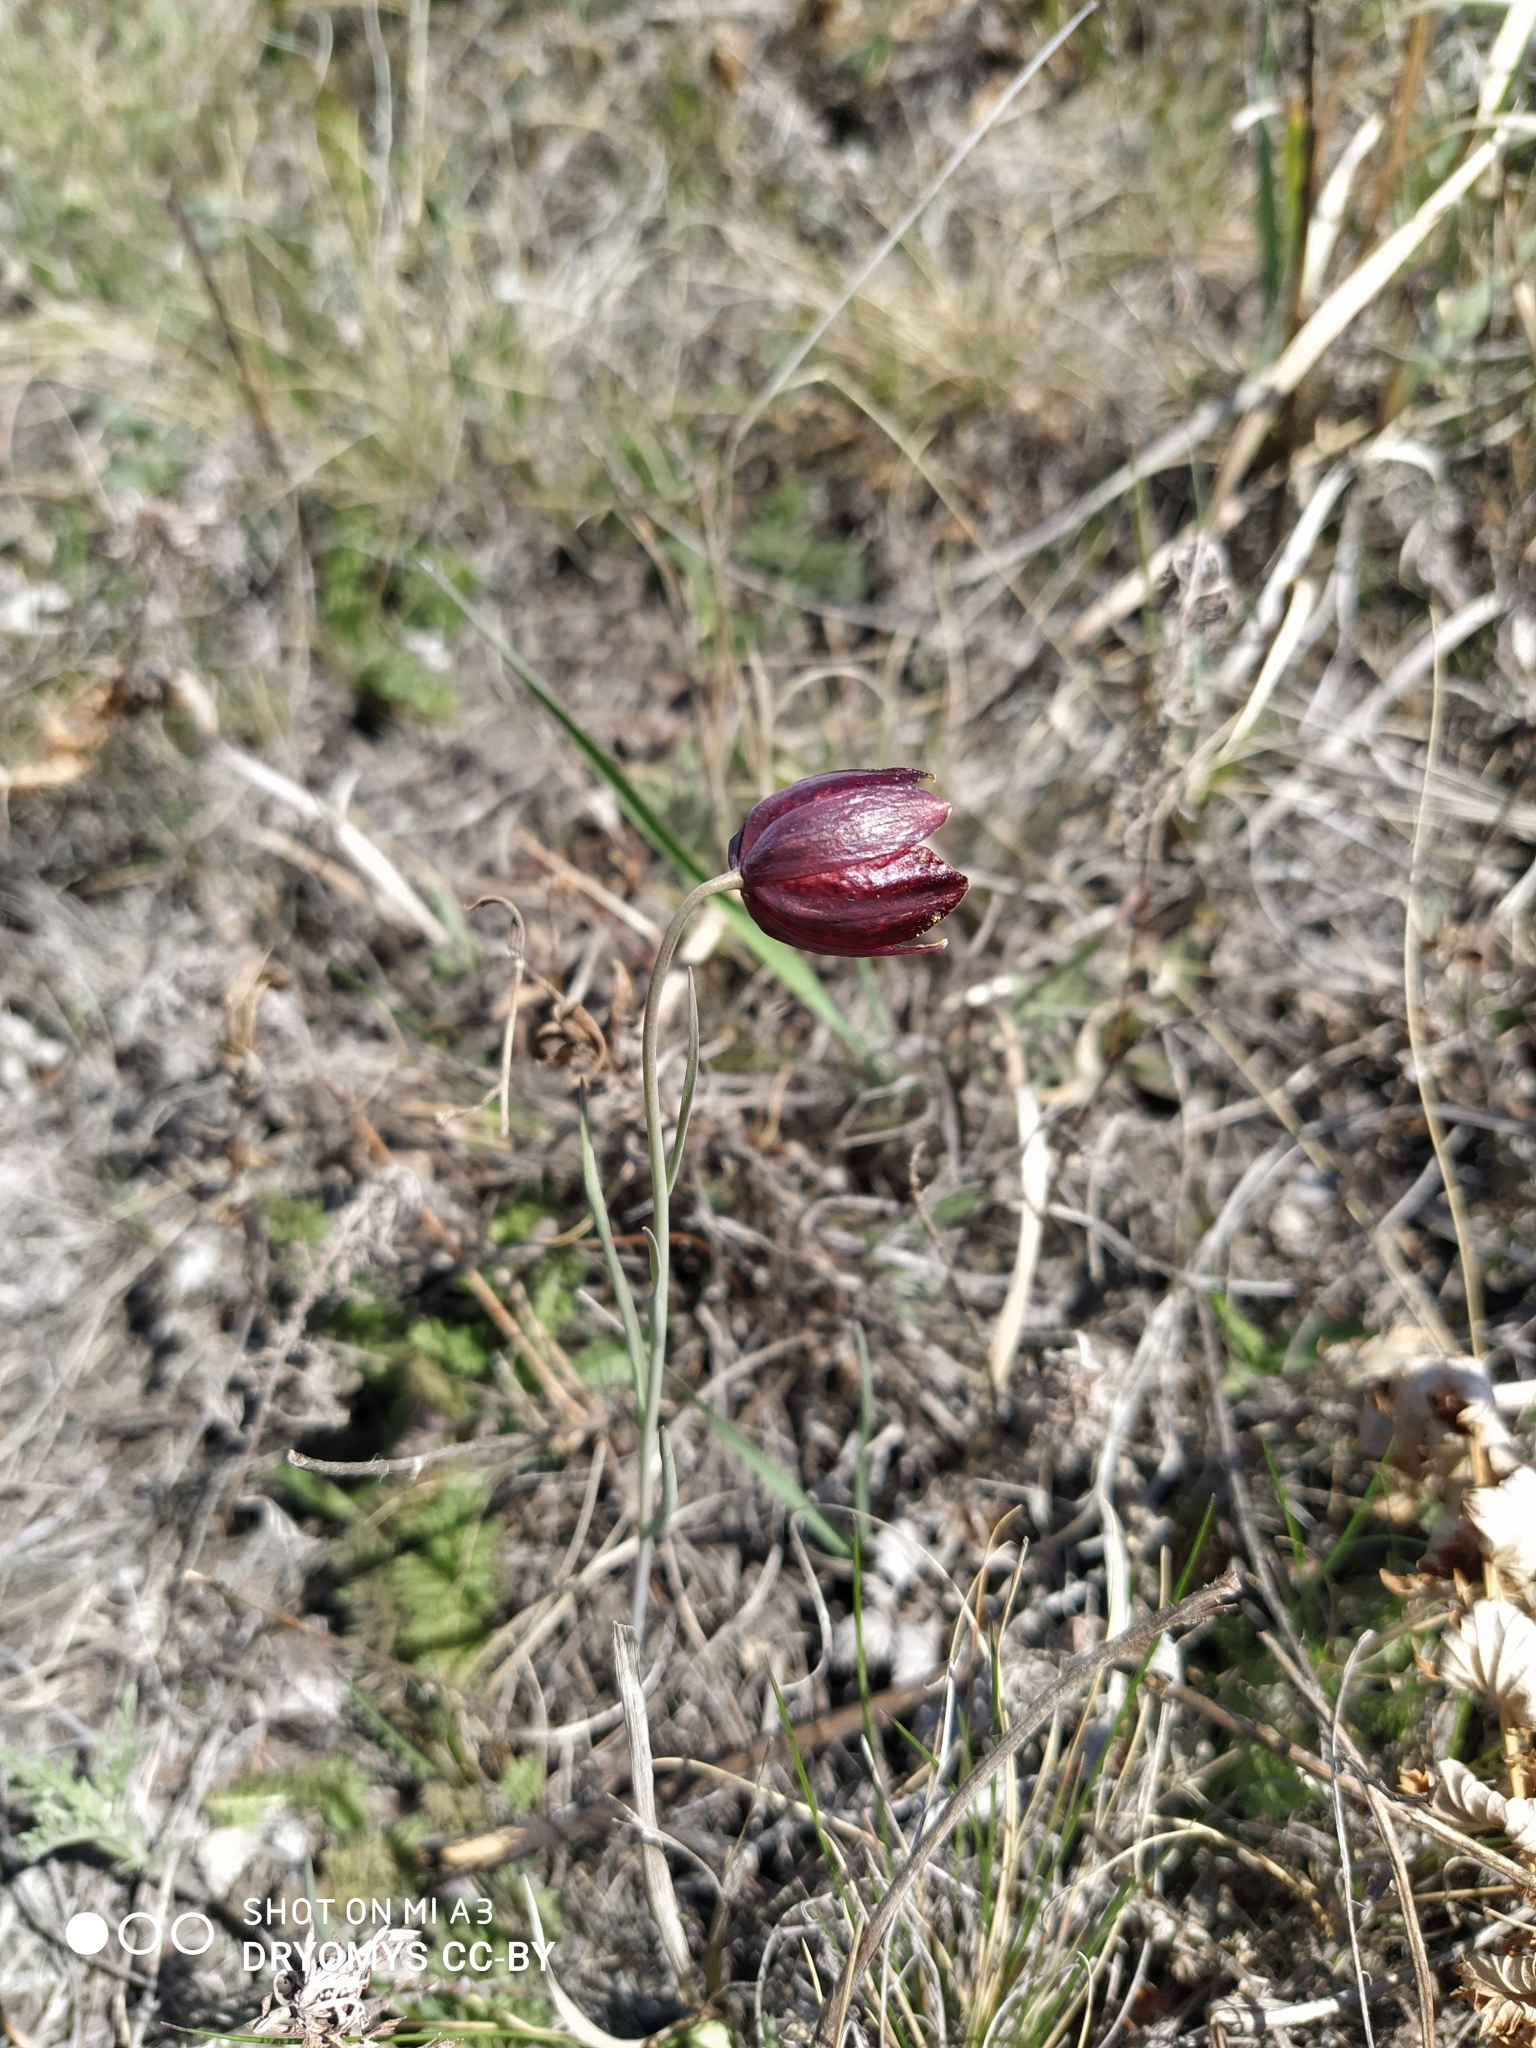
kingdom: Plantae
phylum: Tracheophyta
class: Liliopsida
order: Liliales
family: Liliaceae
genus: Fritillaria
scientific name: Fritillaria meleagroides
